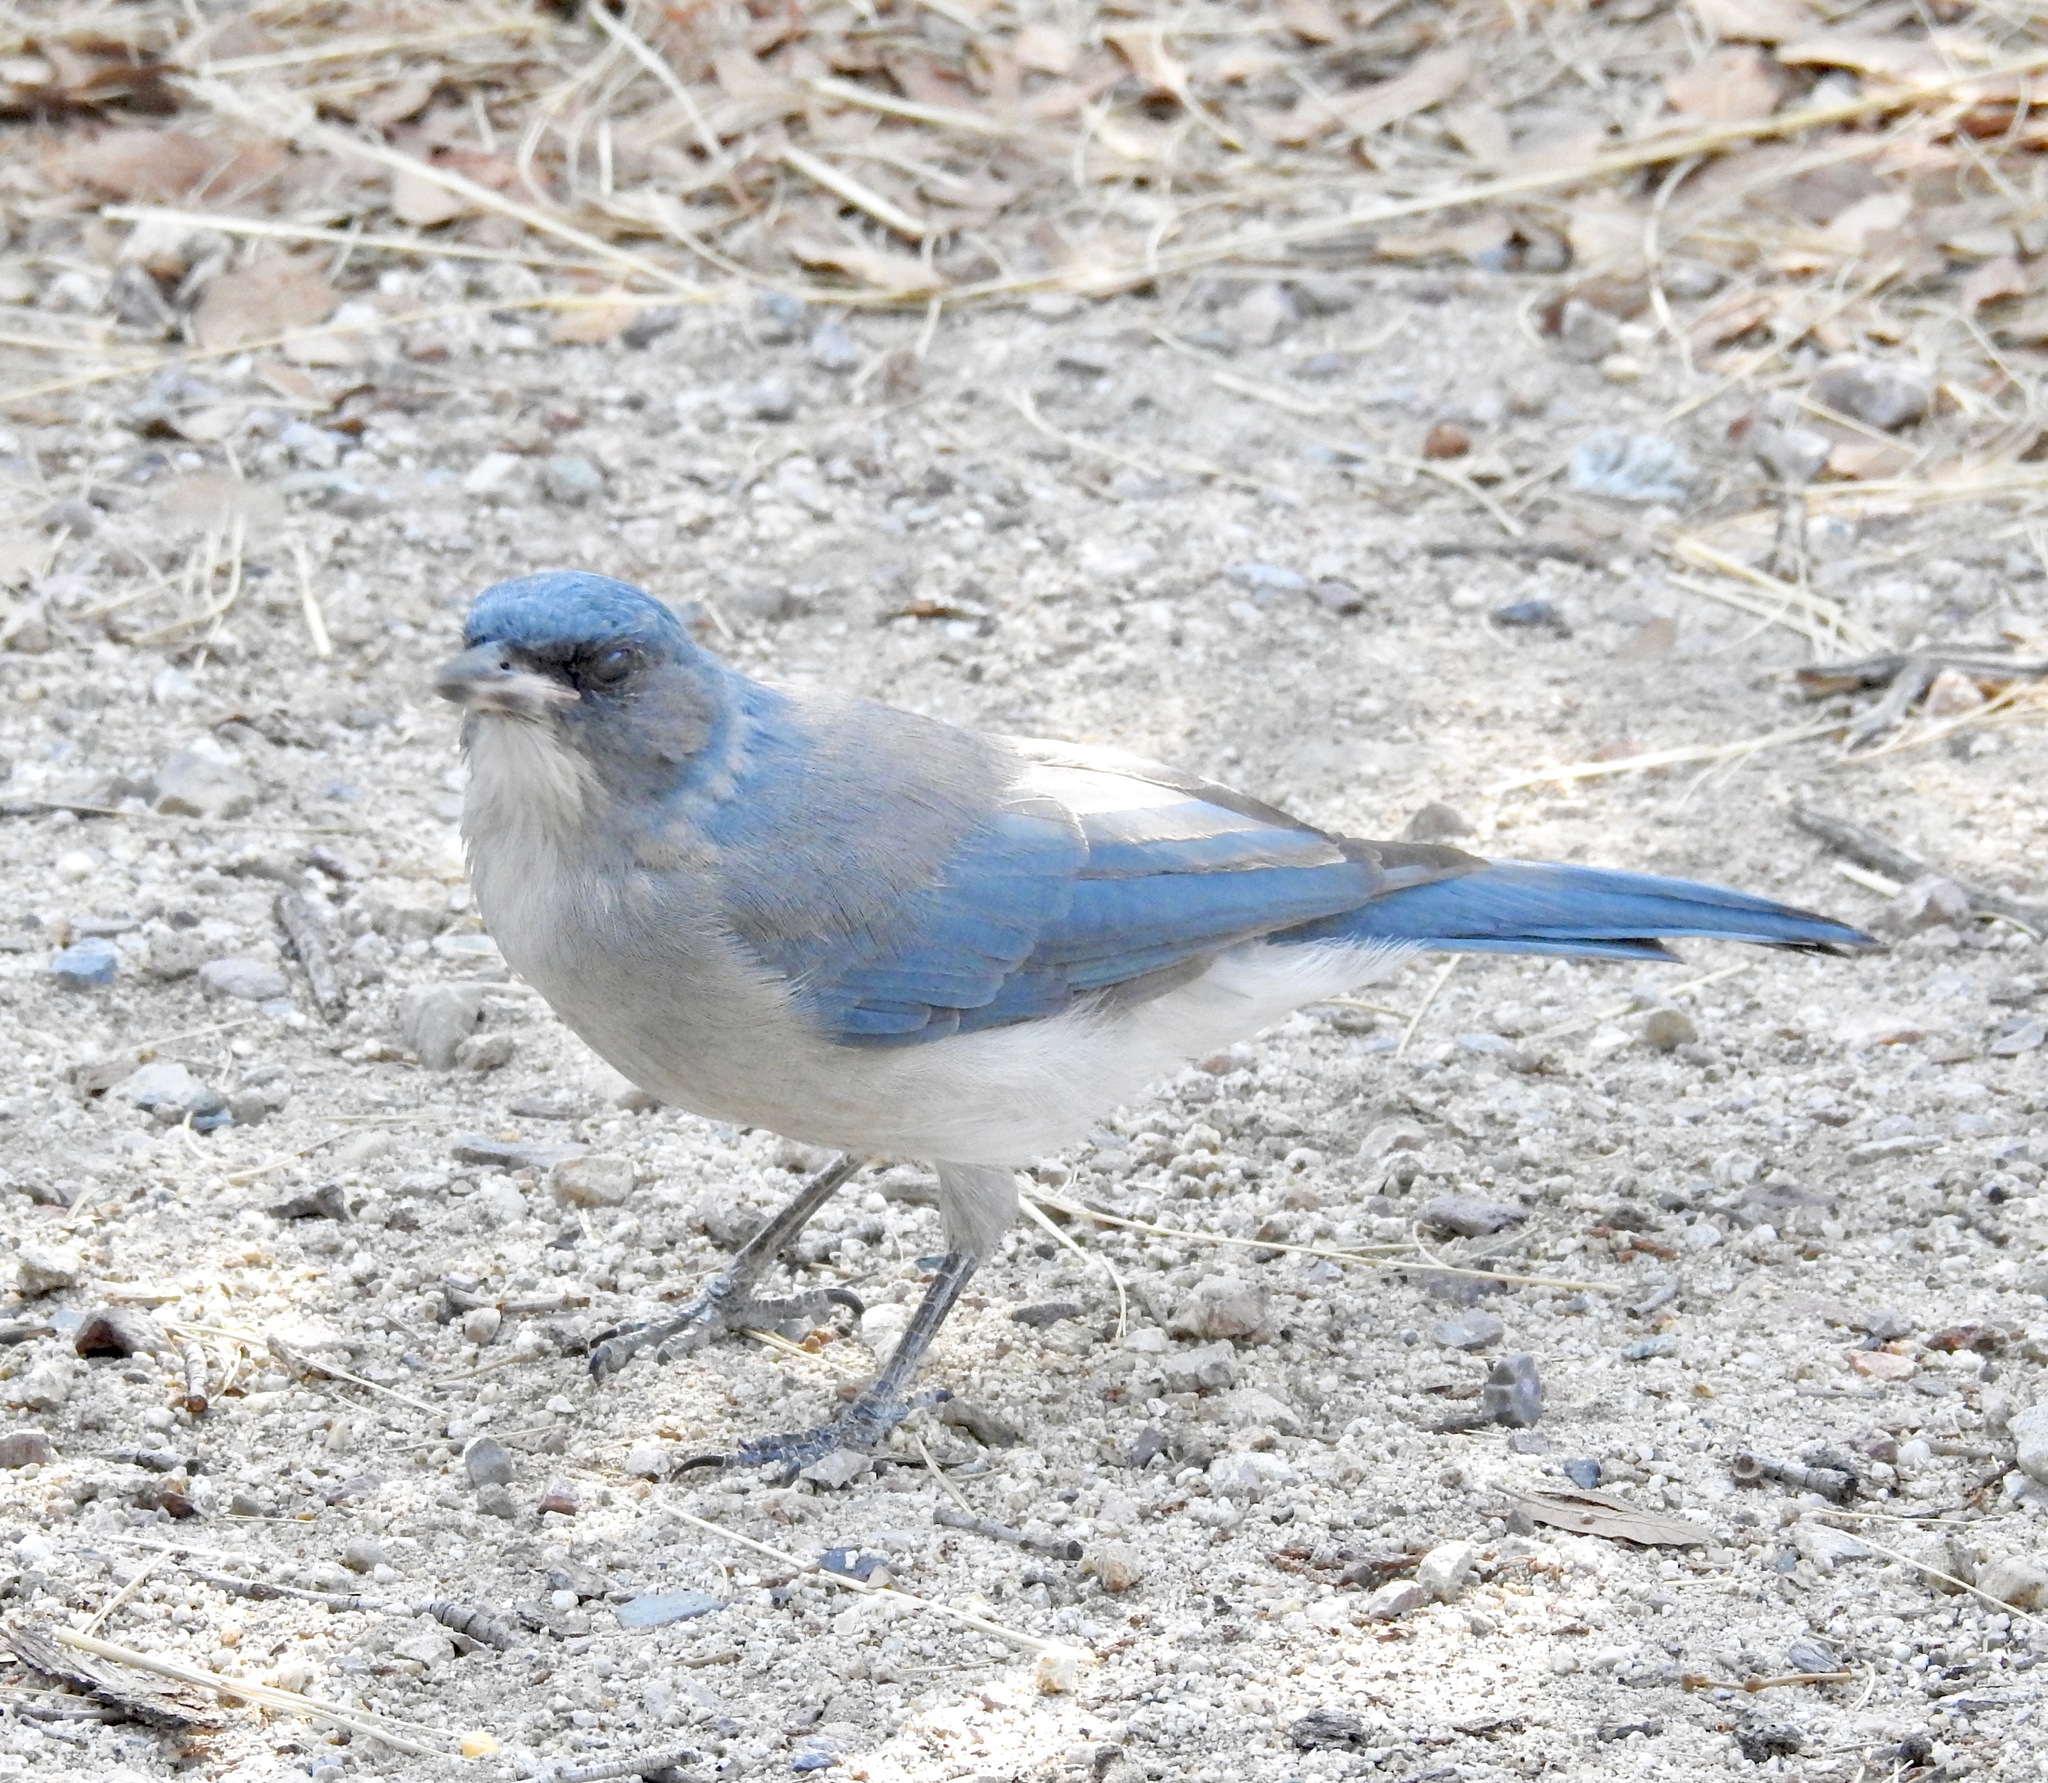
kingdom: Animalia
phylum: Chordata
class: Aves
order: Passeriformes
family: Corvidae
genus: Aphelocoma
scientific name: Aphelocoma wollweberi
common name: Mexican jay
